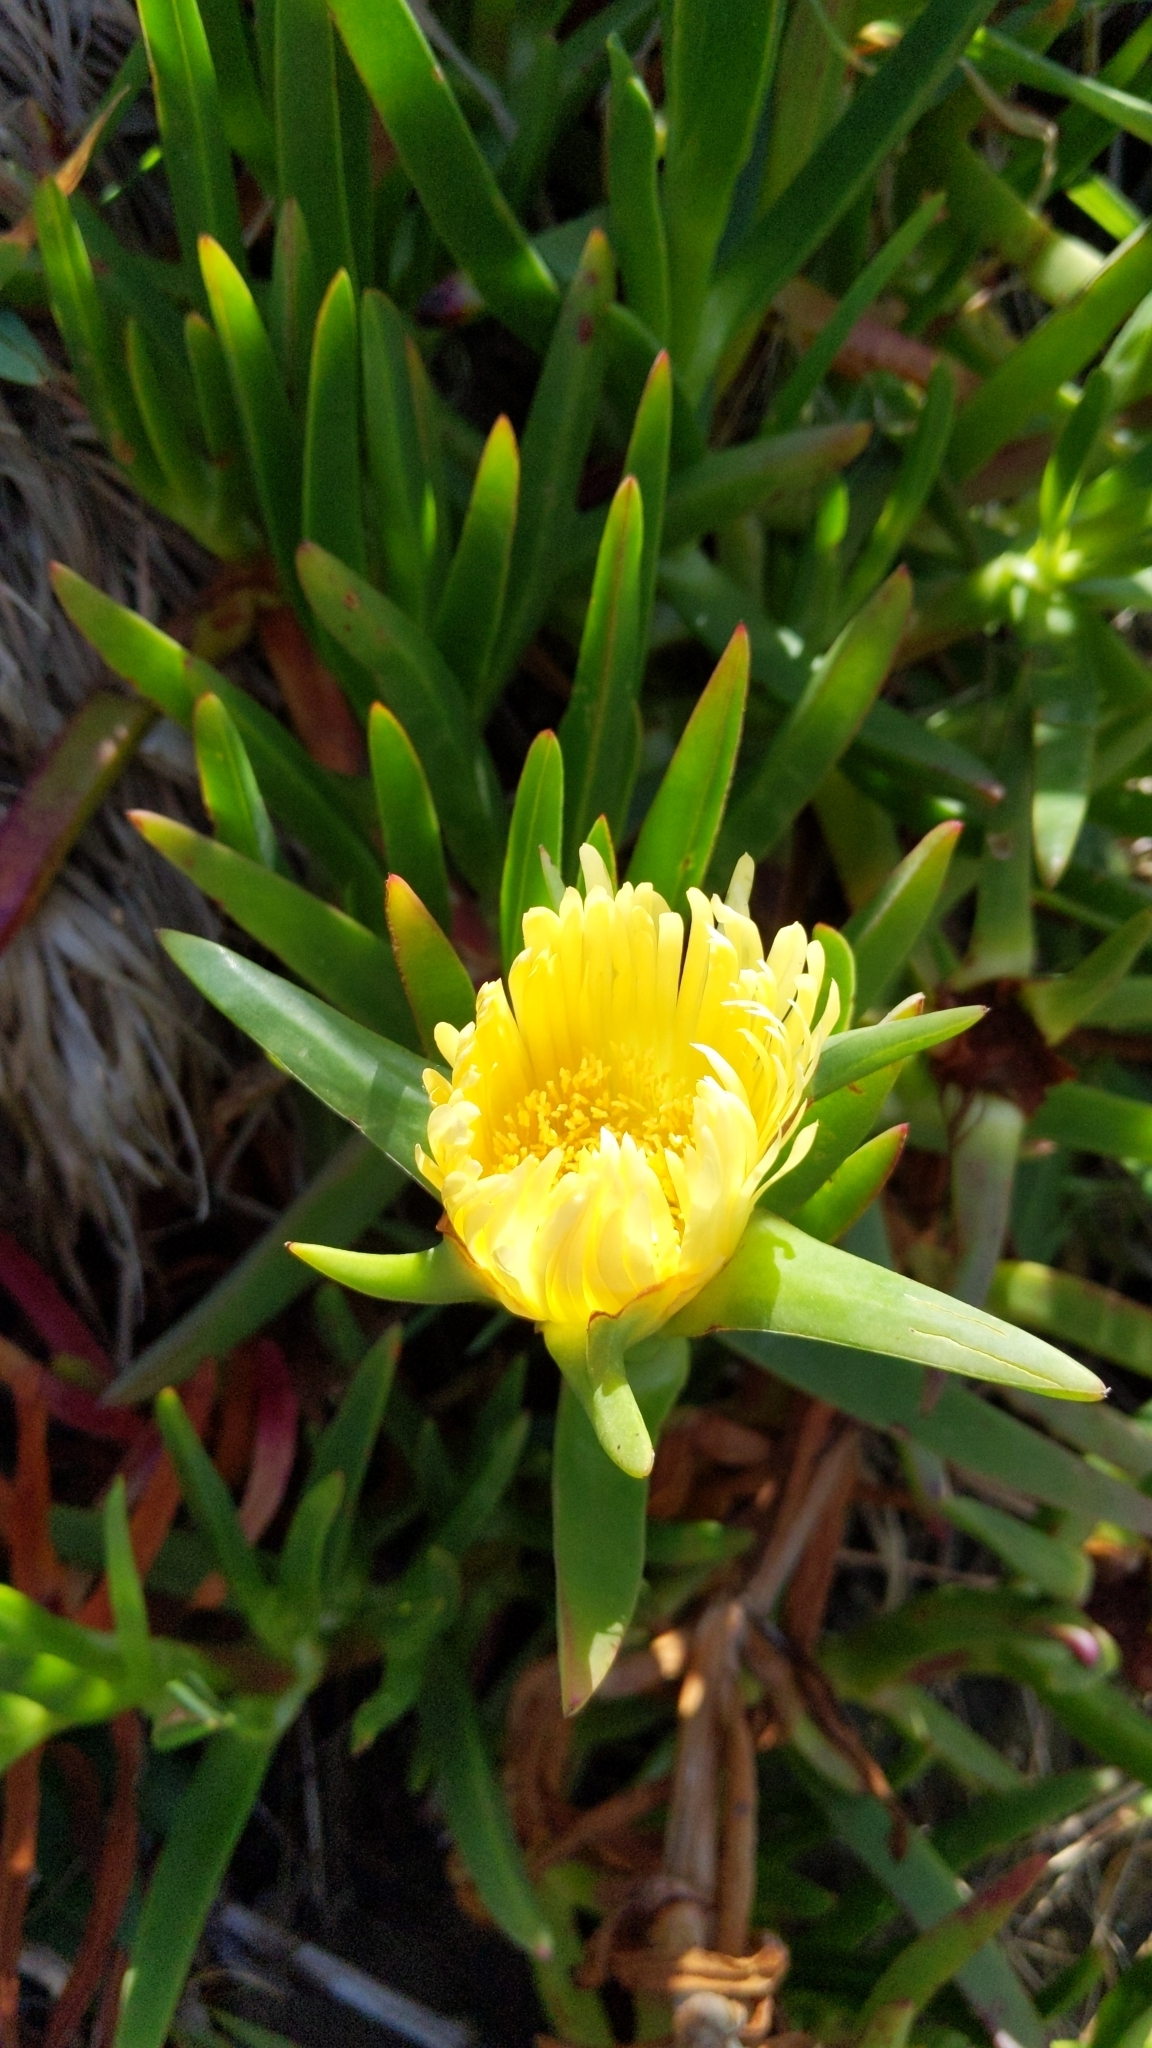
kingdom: Plantae
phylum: Tracheophyta
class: Magnoliopsida
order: Caryophyllales
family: Aizoaceae
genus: Carpobrotus
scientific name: Carpobrotus edulis
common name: Hottentot-fig
